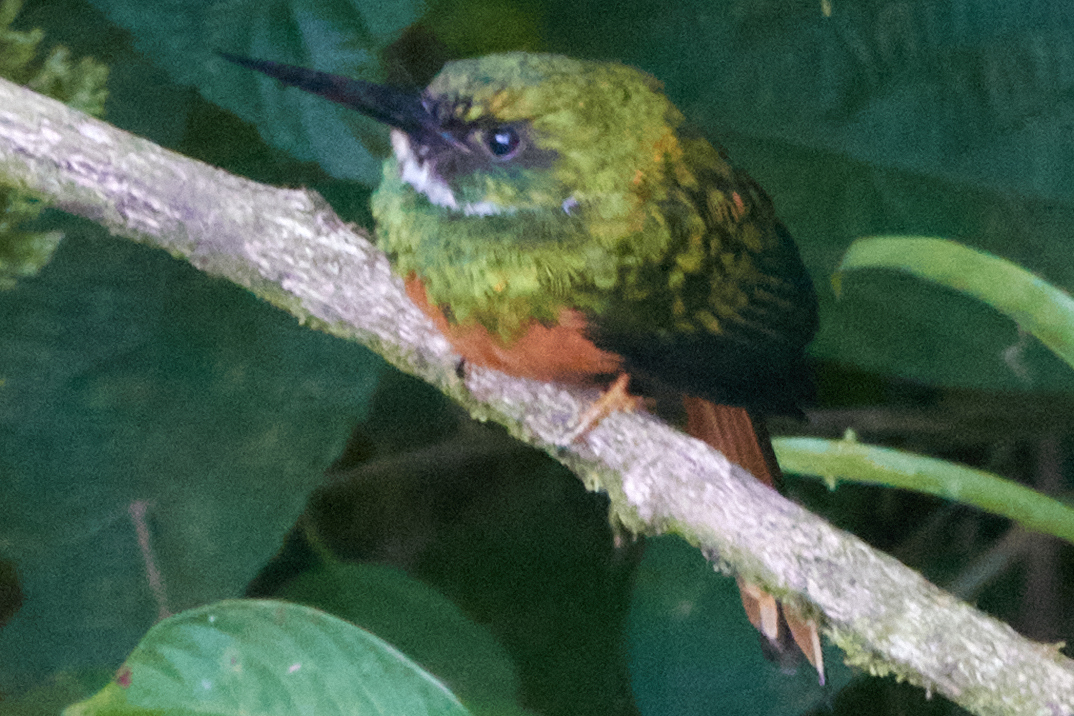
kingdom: Animalia
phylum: Chordata
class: Aves
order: Piciformes
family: Galbulidae
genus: Galbula
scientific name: Galbula ruficauda
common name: Rufous-tailed jacamar
